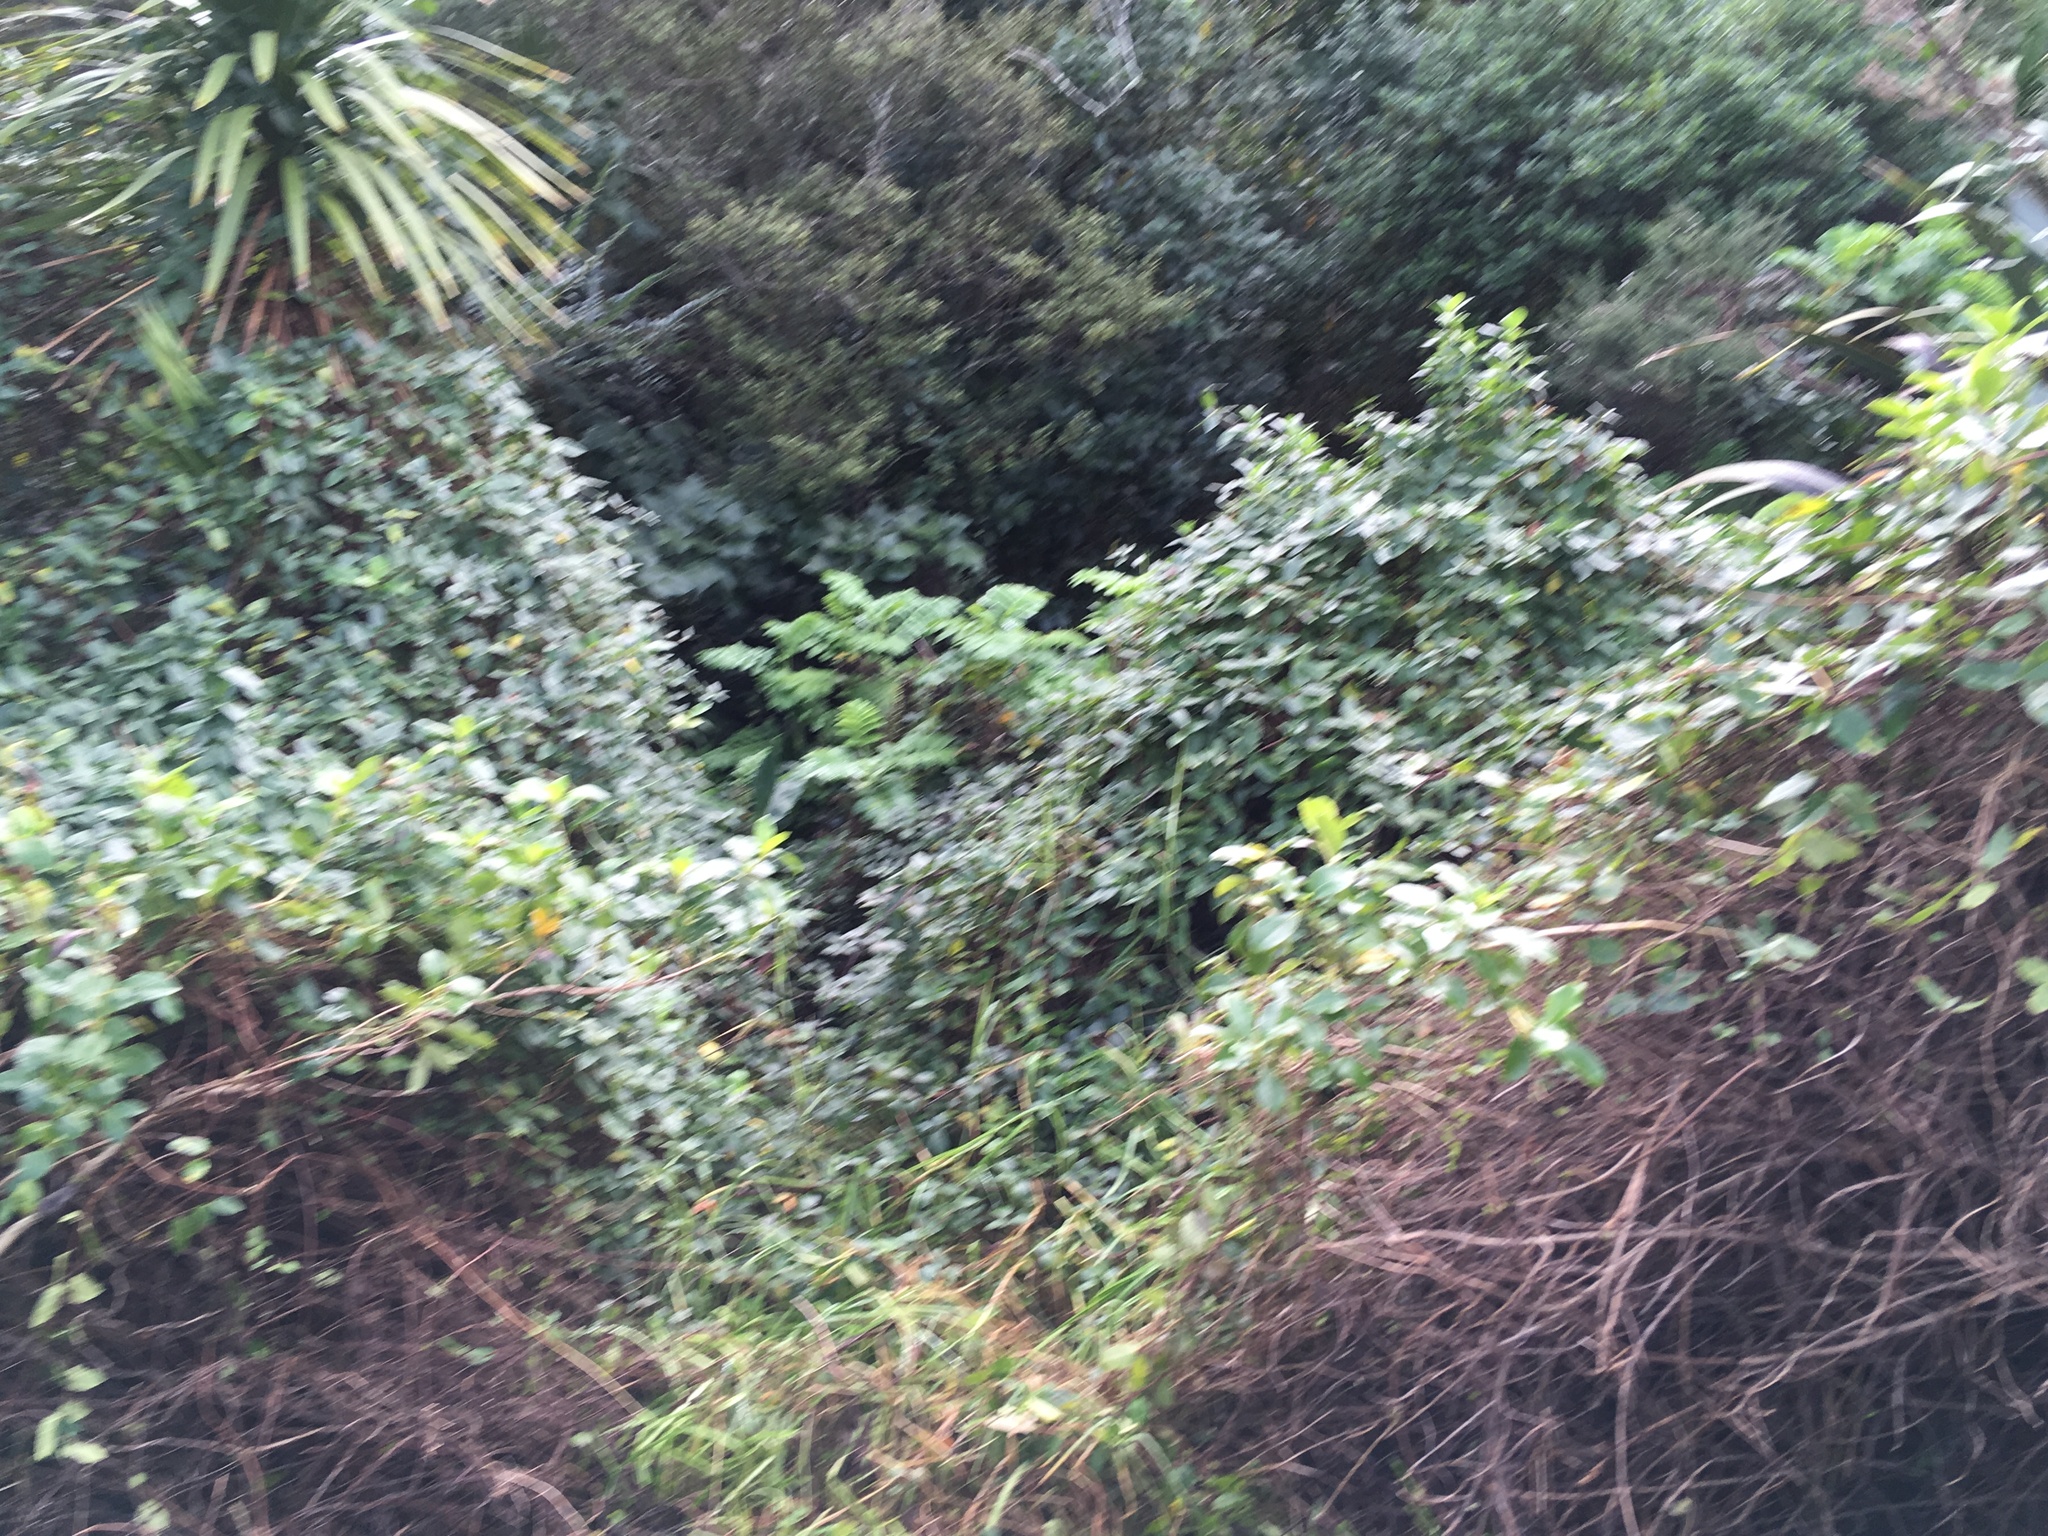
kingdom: Plantae
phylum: Tracheophyta
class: Magnoliopsida
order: Dipsacales
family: Caprifoliaceae
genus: Lonicera
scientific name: Lonicera japonica
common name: Japanese honeysuckle
